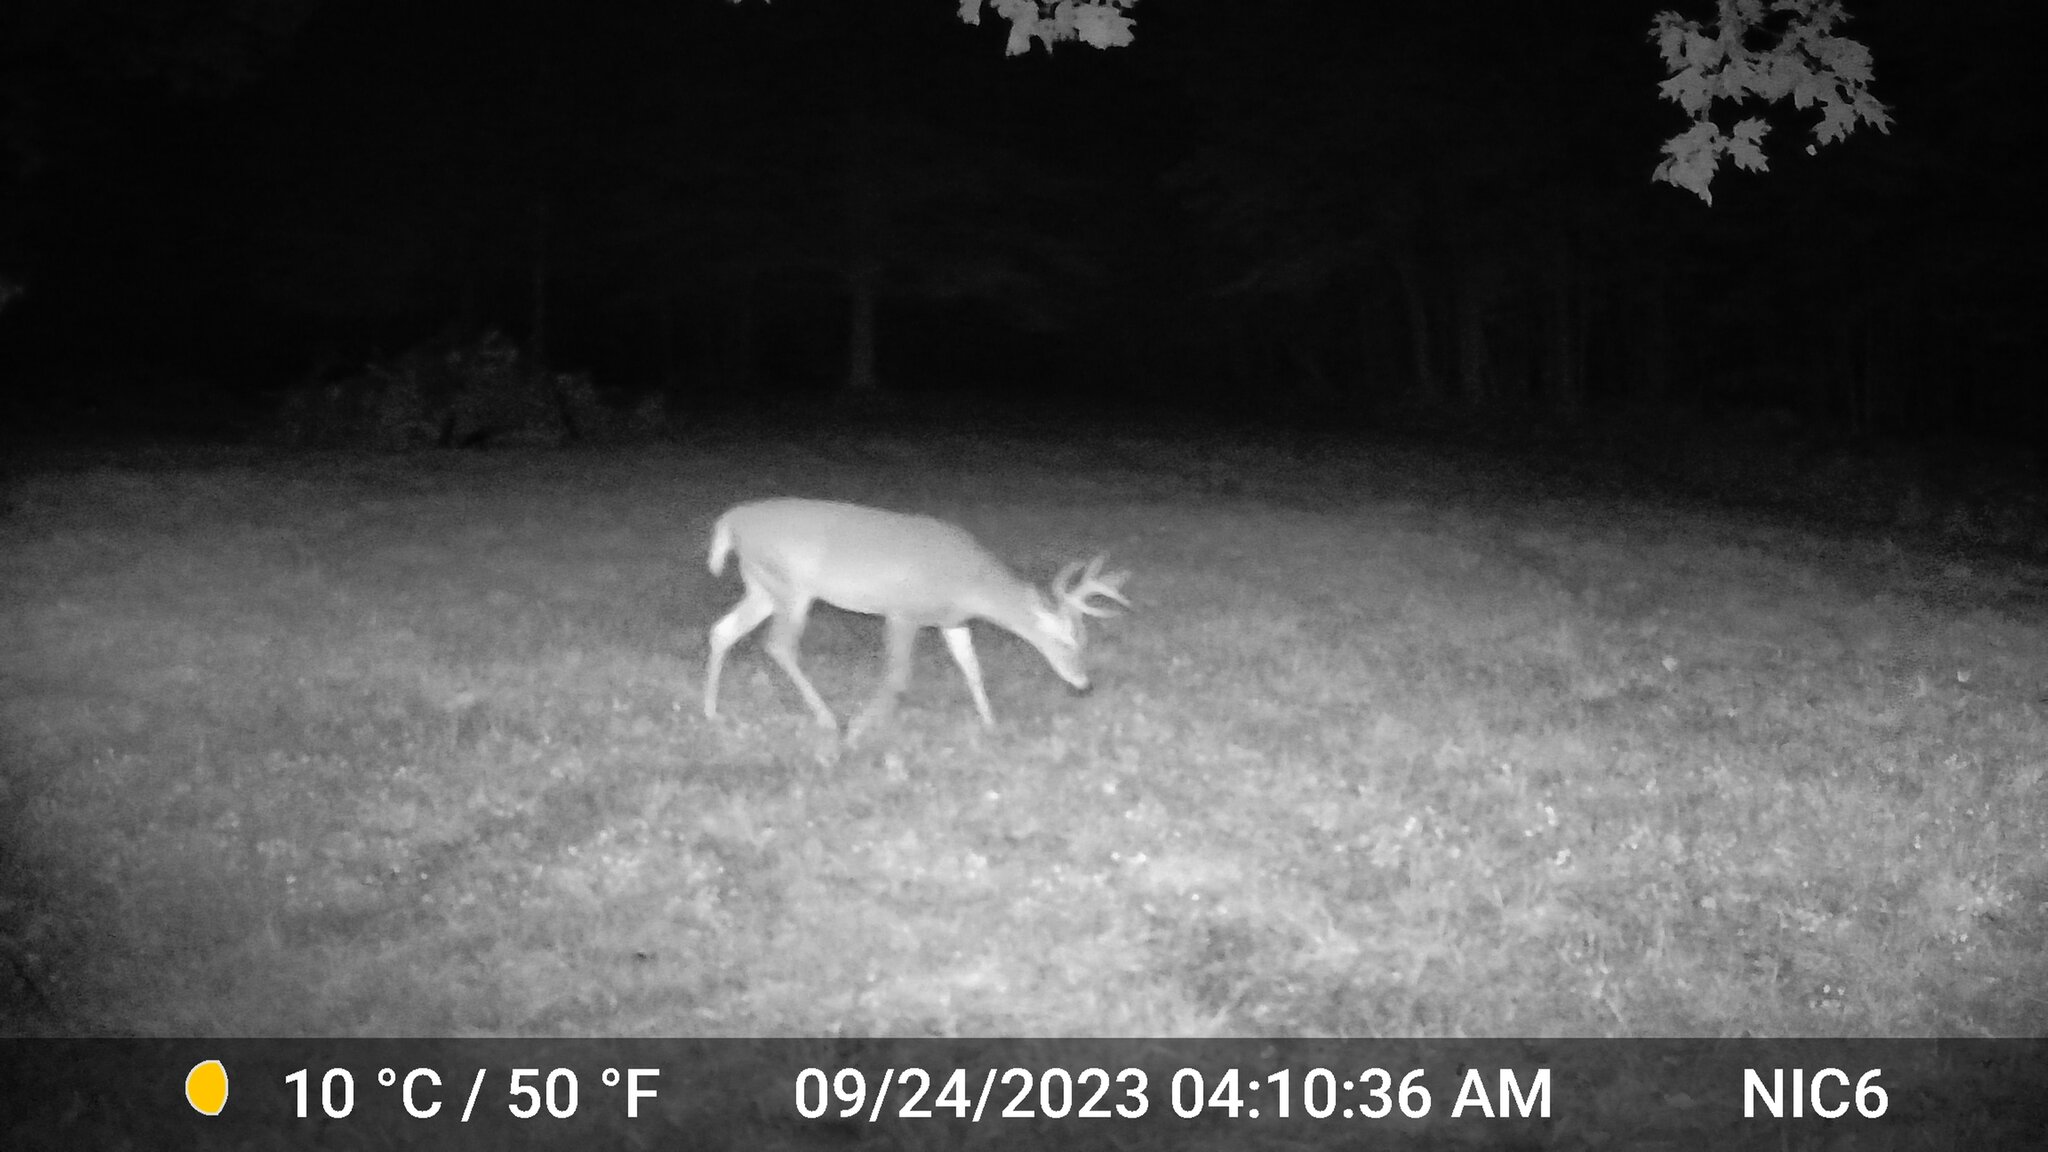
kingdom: Animalia
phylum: Chordata
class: Mammalia
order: Artiodactyla
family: Cervidae
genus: Odocoileus
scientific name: Odocoileus virginianus
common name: White-tailed deer
